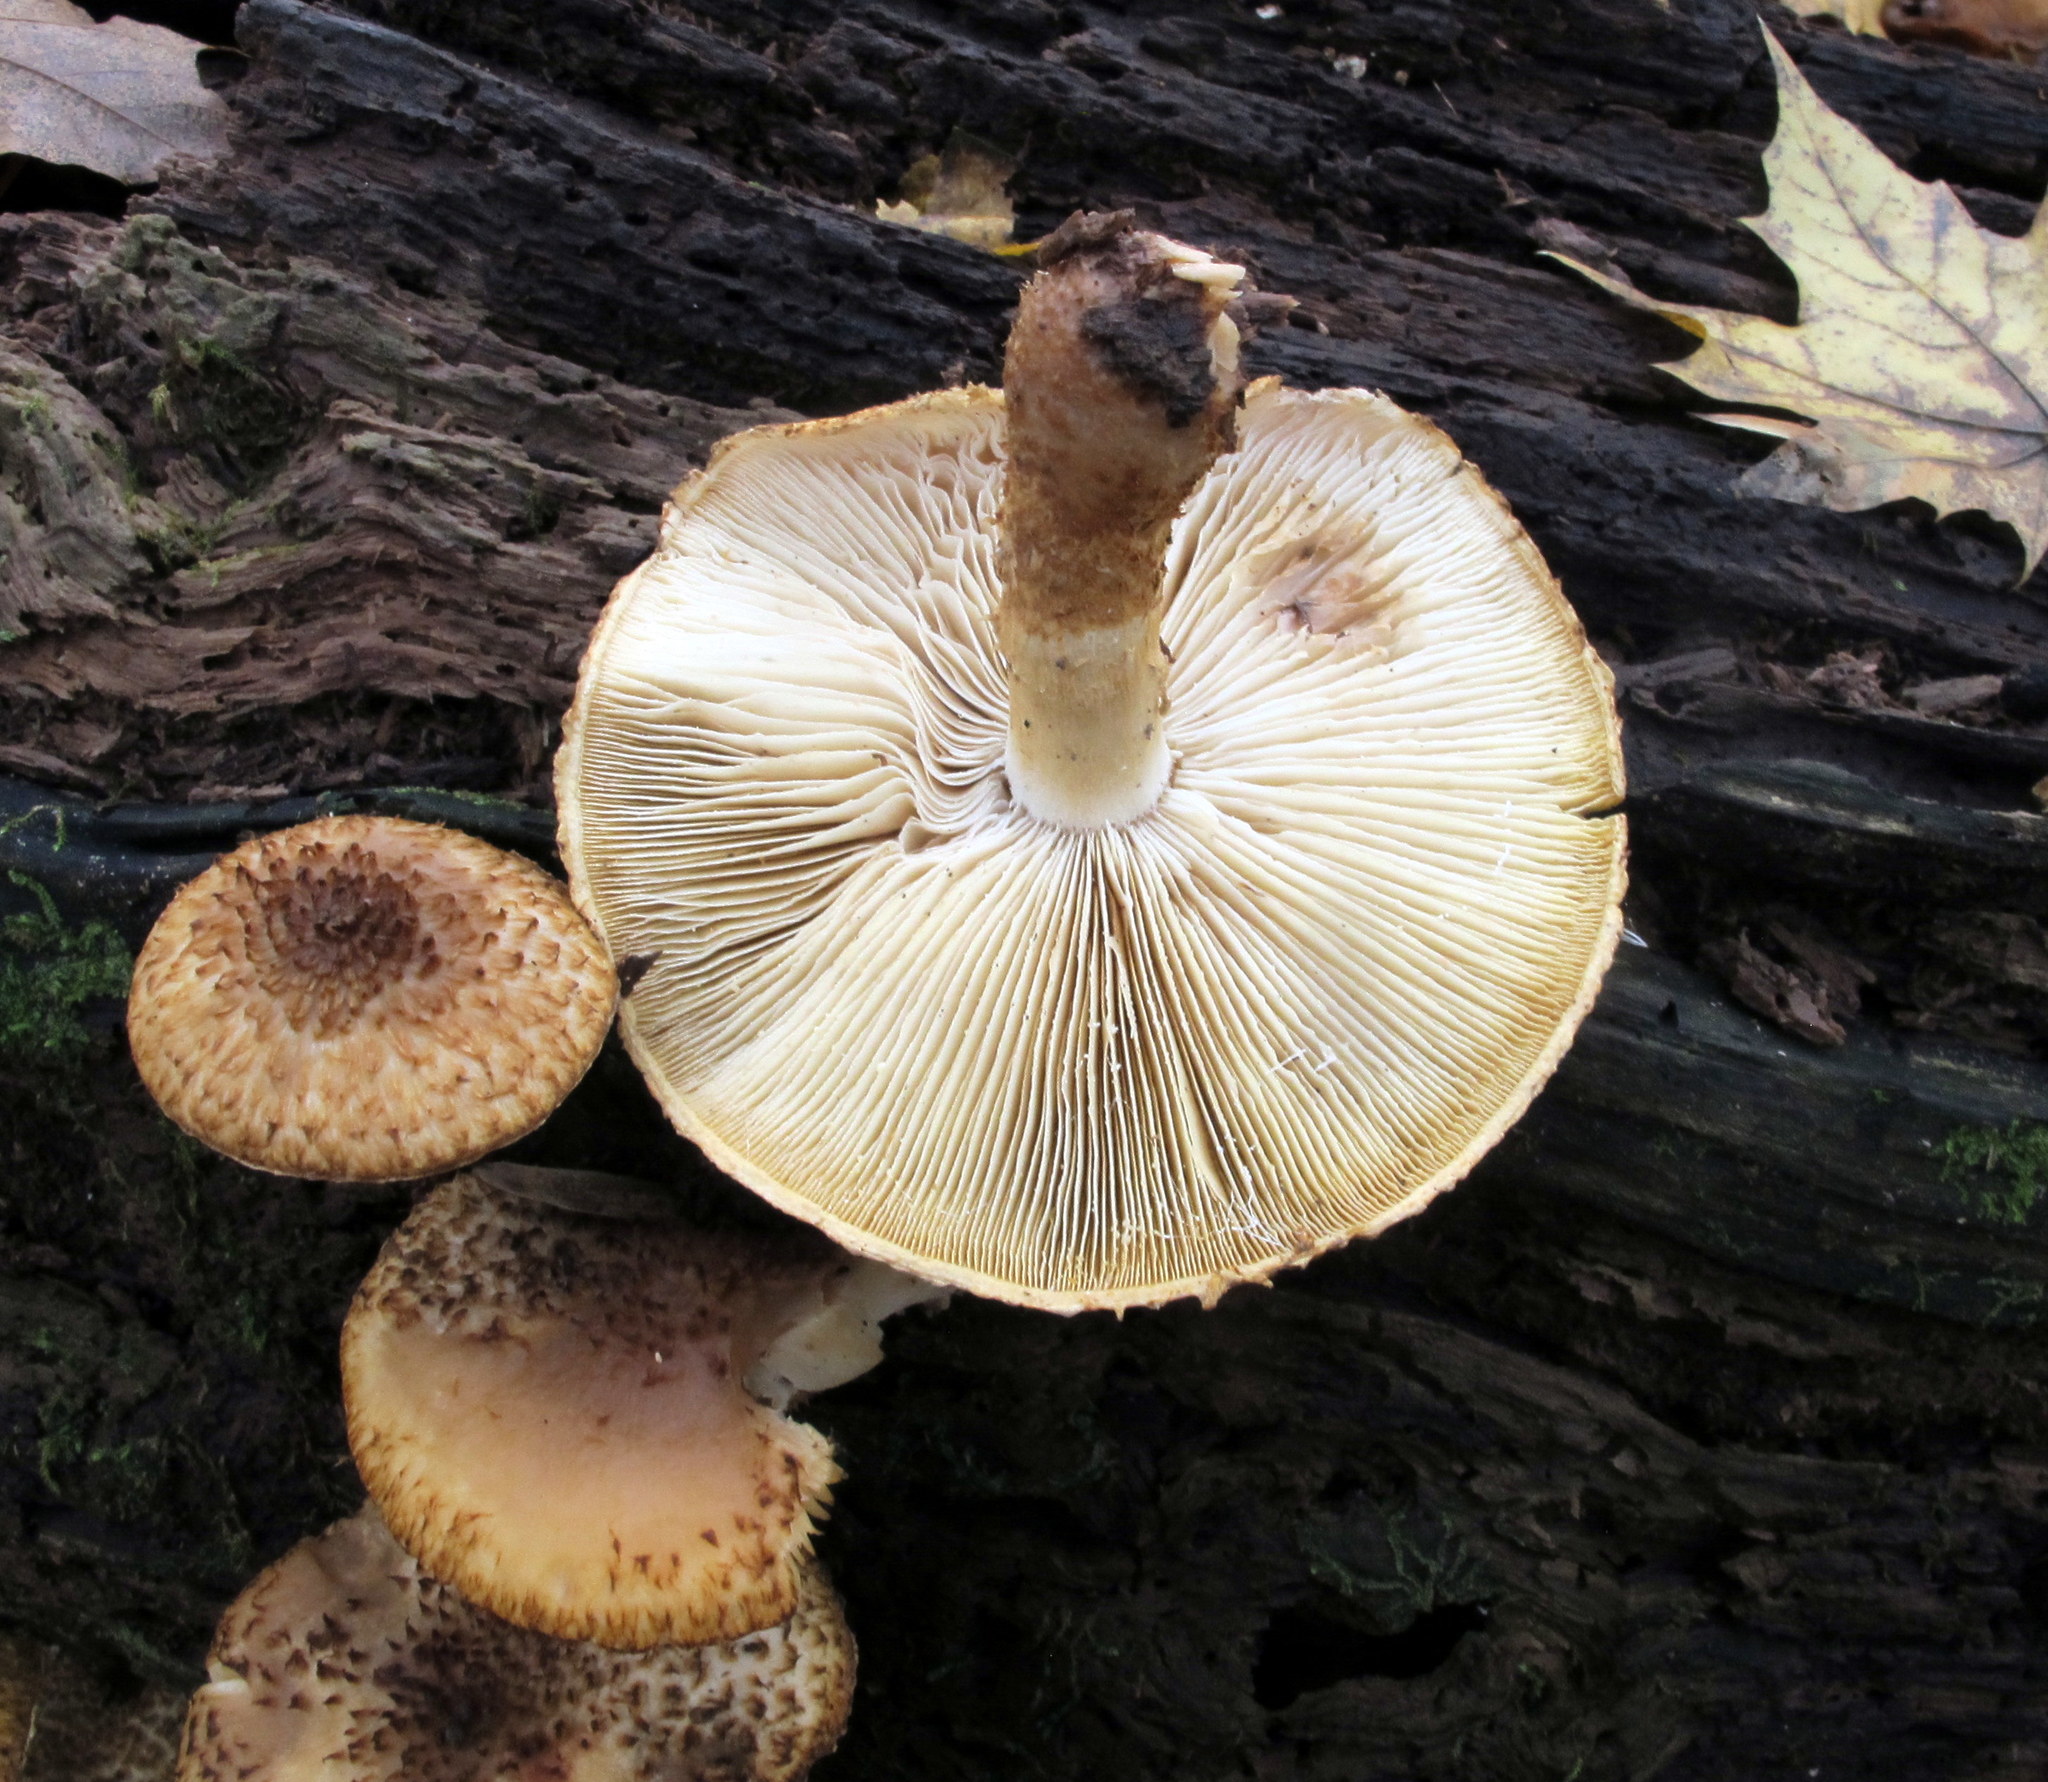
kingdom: Fungi
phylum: Basidiomycota
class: Agaricomycetes
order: Agaricales
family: Agaricaceae
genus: Leucopholiota
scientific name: Leucopholiota decorosa
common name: Decorated pholiota
